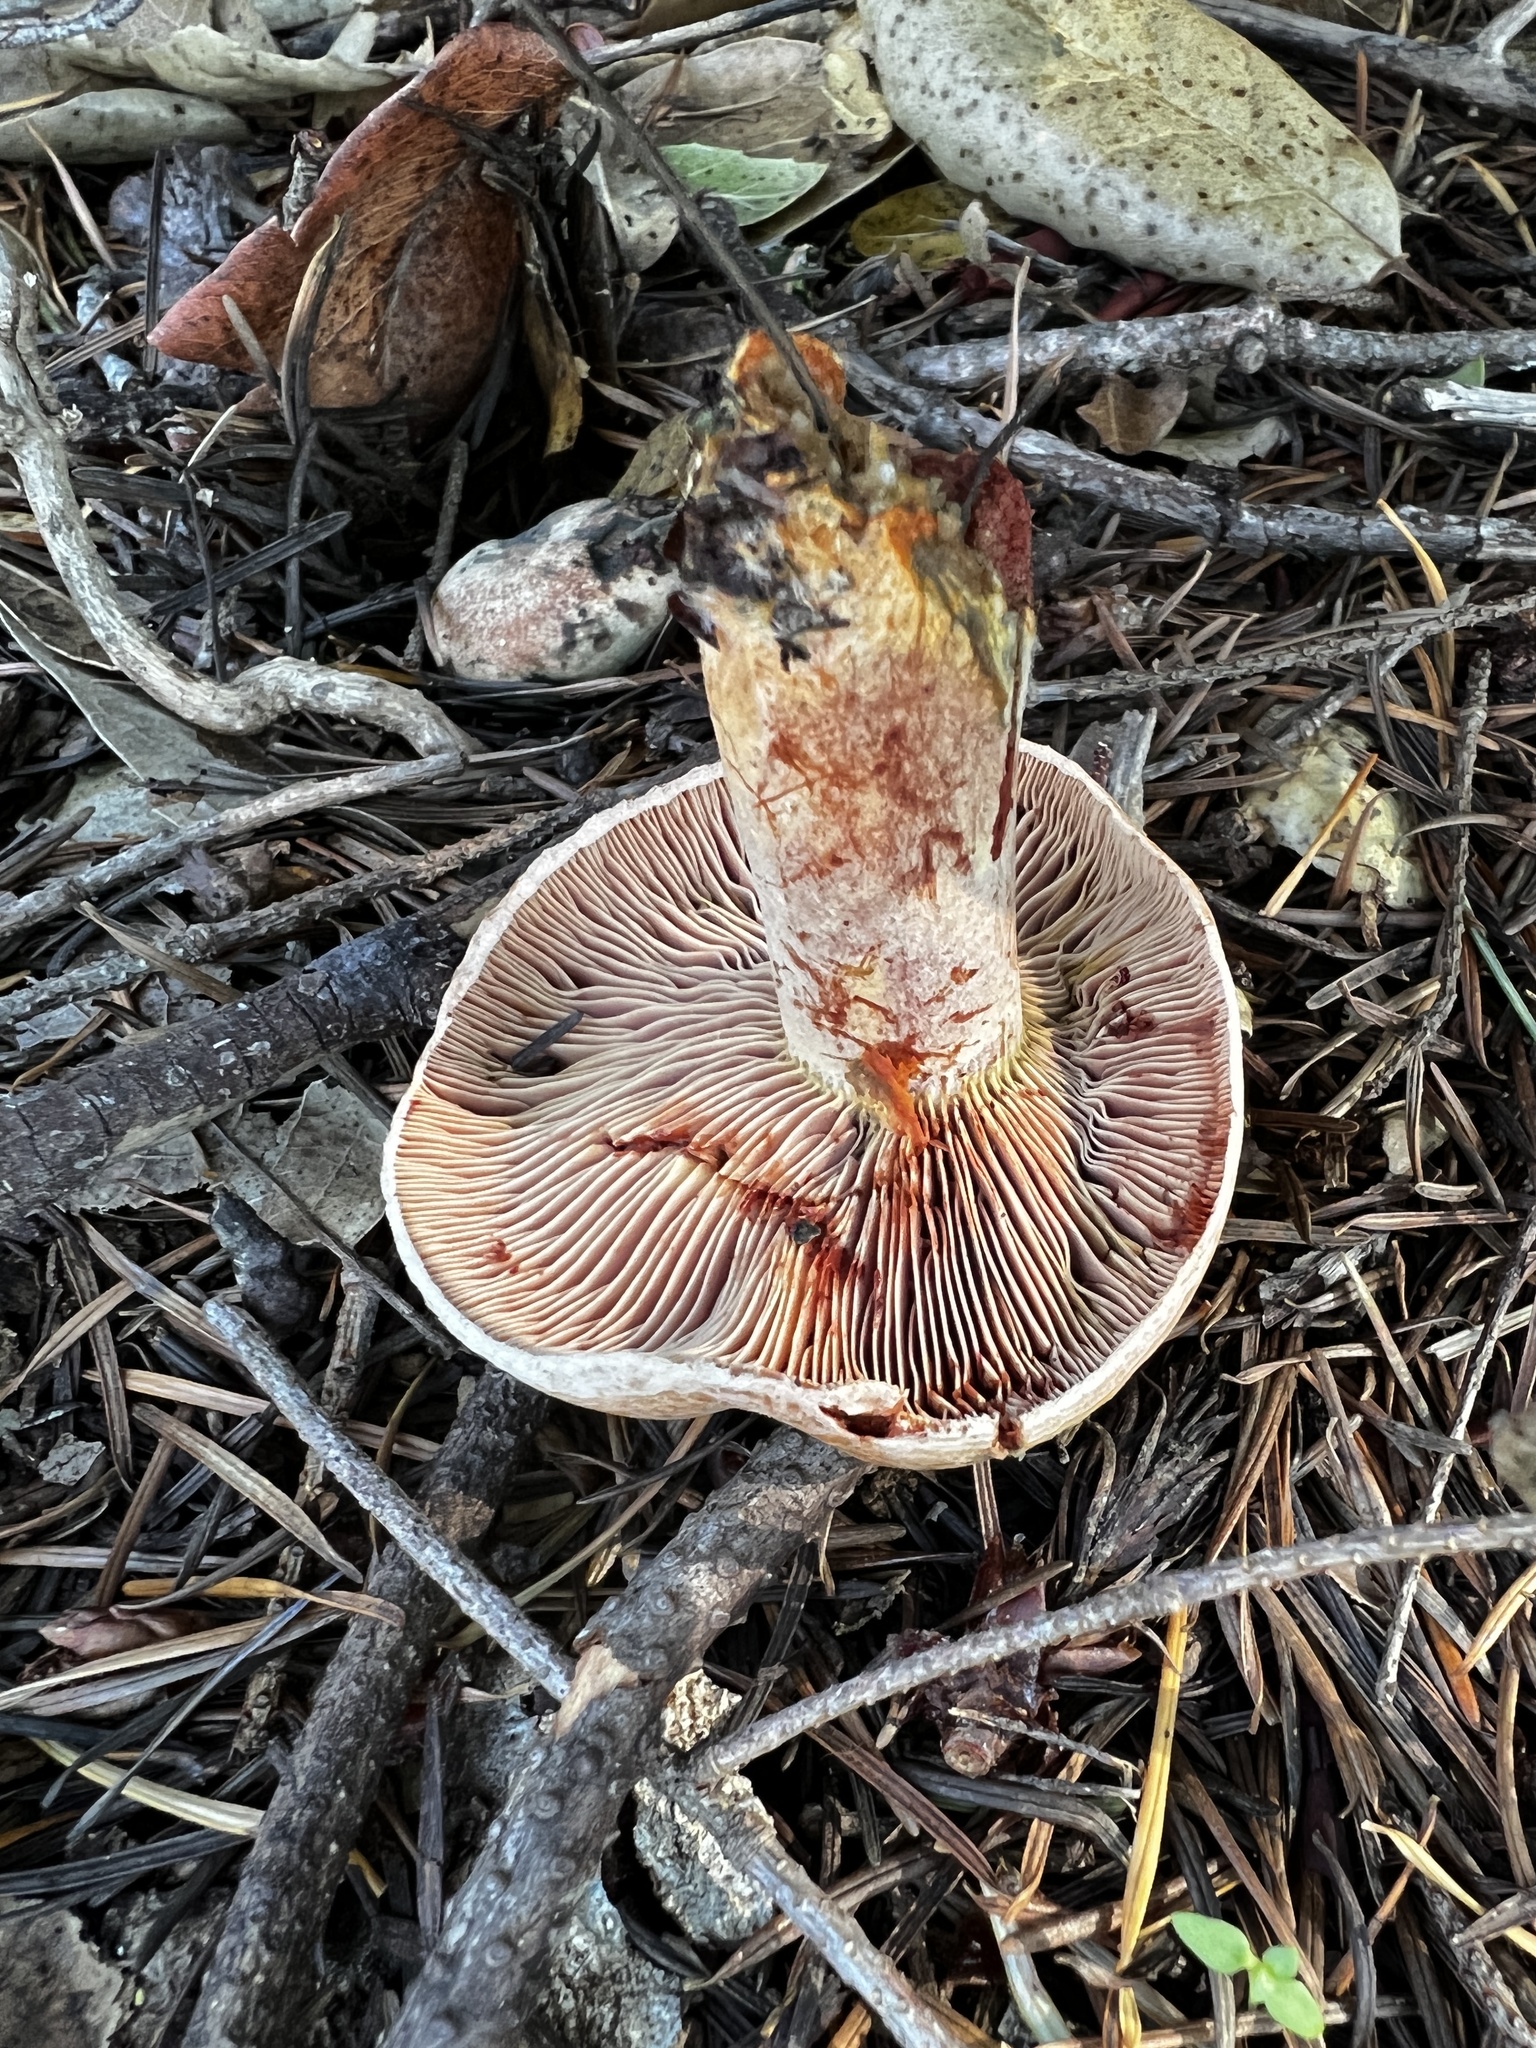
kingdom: Fungi
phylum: Basidiomycota
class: Agaricomycetes
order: Russulales
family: Russulaceae
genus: Lactarius
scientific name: Lactarius rubrilacteus
